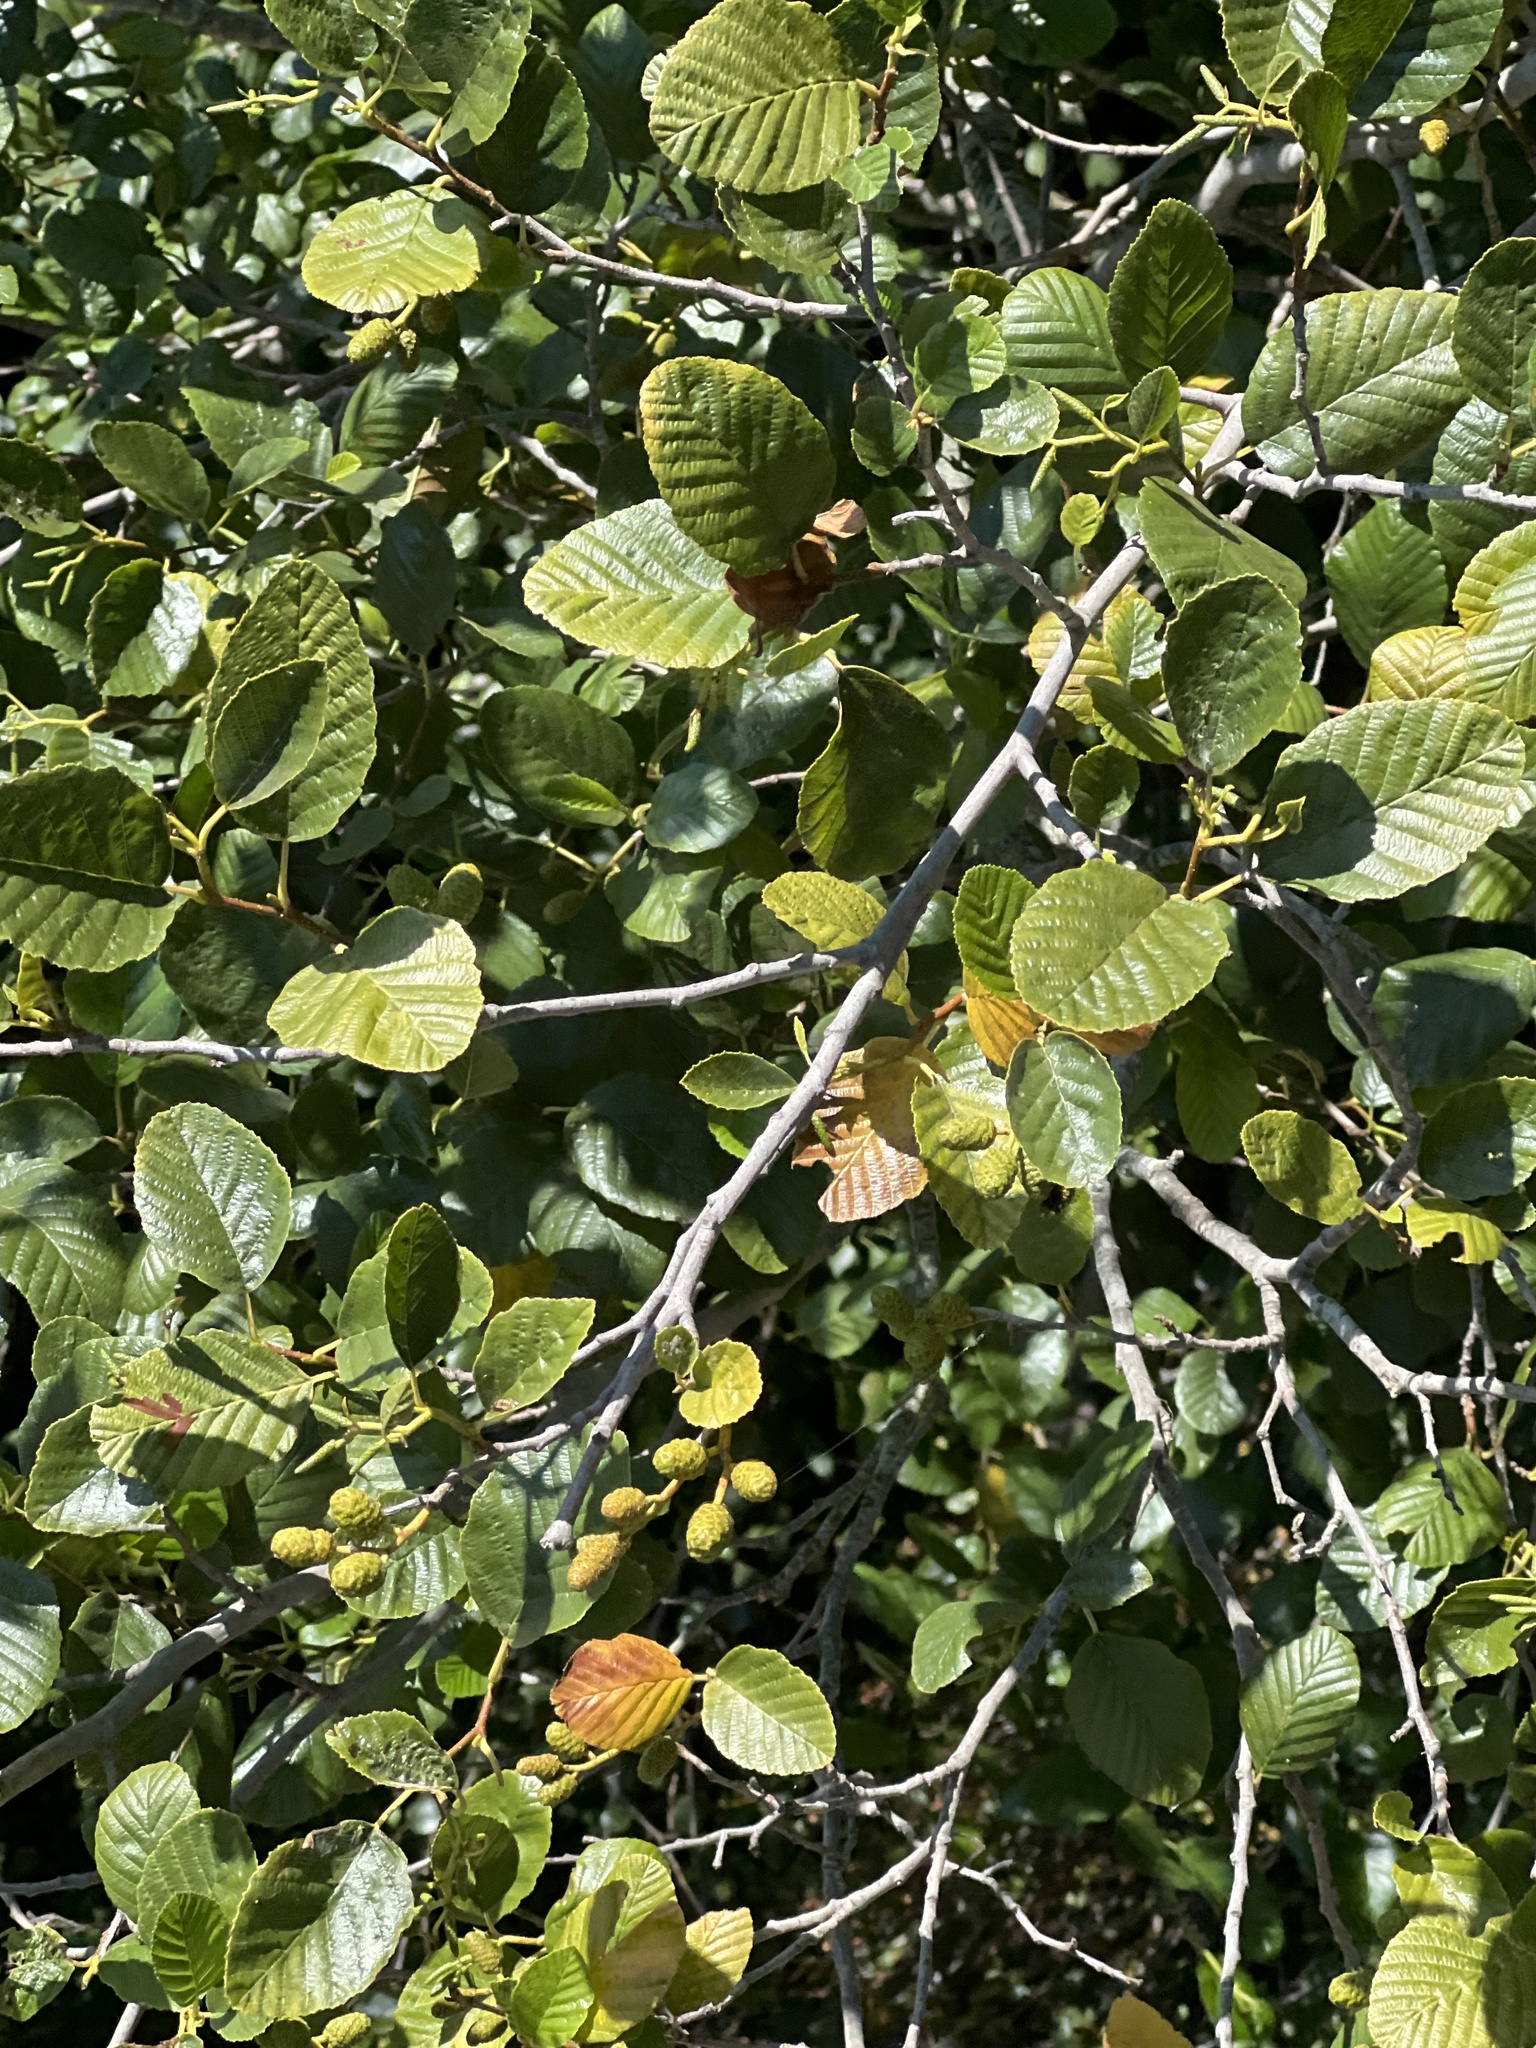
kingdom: Plantae
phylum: Tracheophyta
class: Magnoliopsida
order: Fagales
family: Betulaceae
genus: Alnus
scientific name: Alnus rhombifolia
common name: California alder
